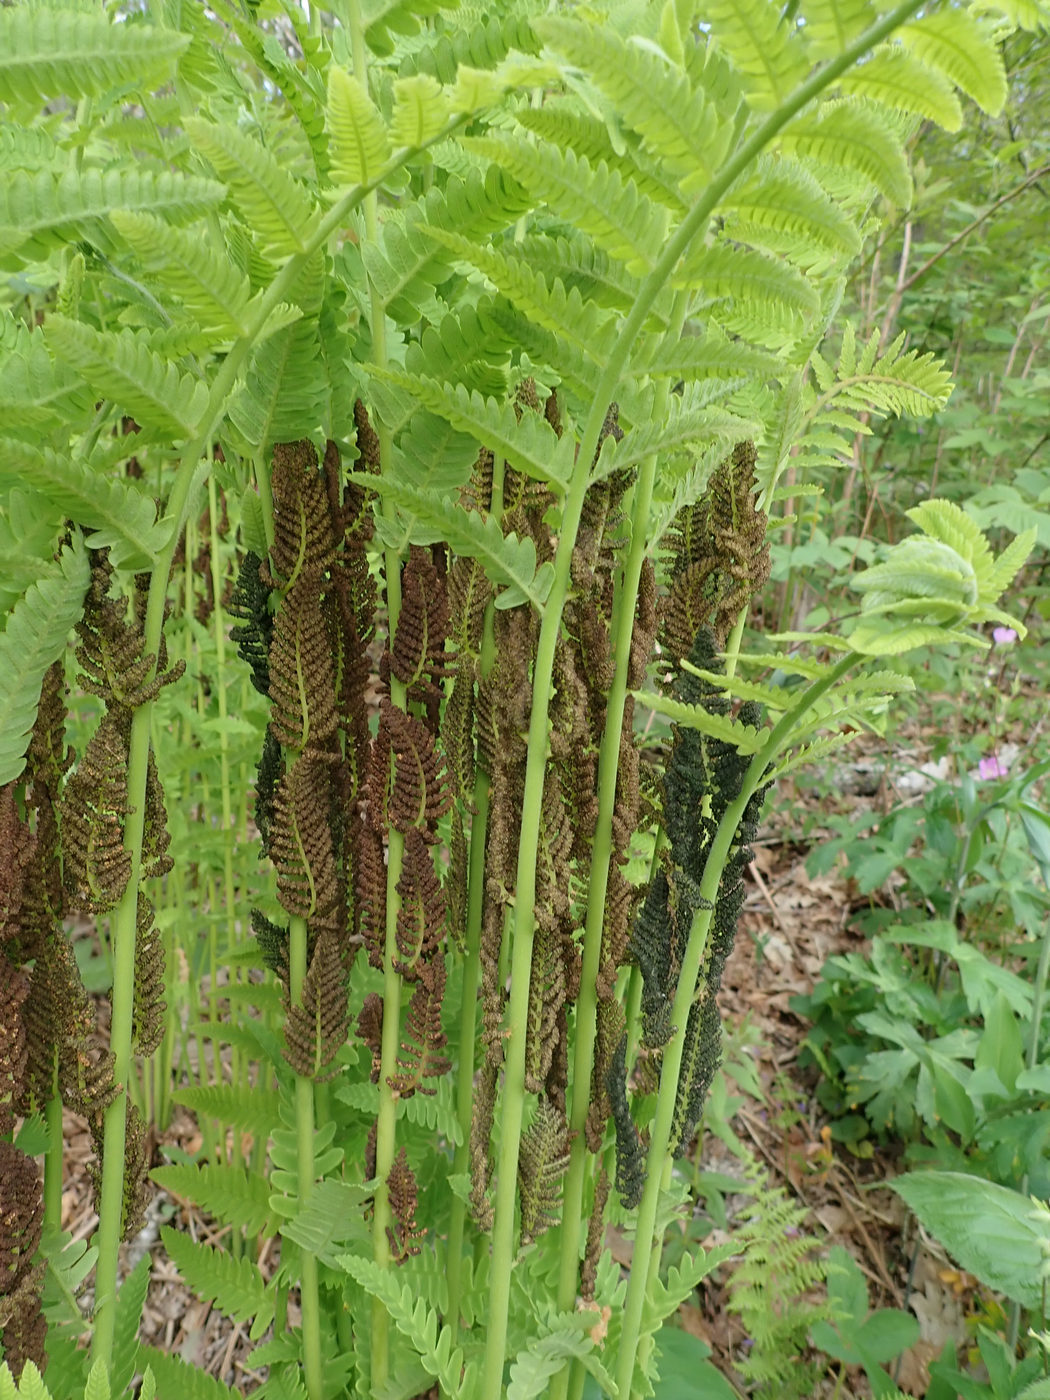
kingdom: Plantae
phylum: Tracheophyta
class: Polypodiopsida
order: Osmundales
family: Osmundaceae
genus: Claytosmunda
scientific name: Claytosmunda claytoniana
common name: Clayton's fern
